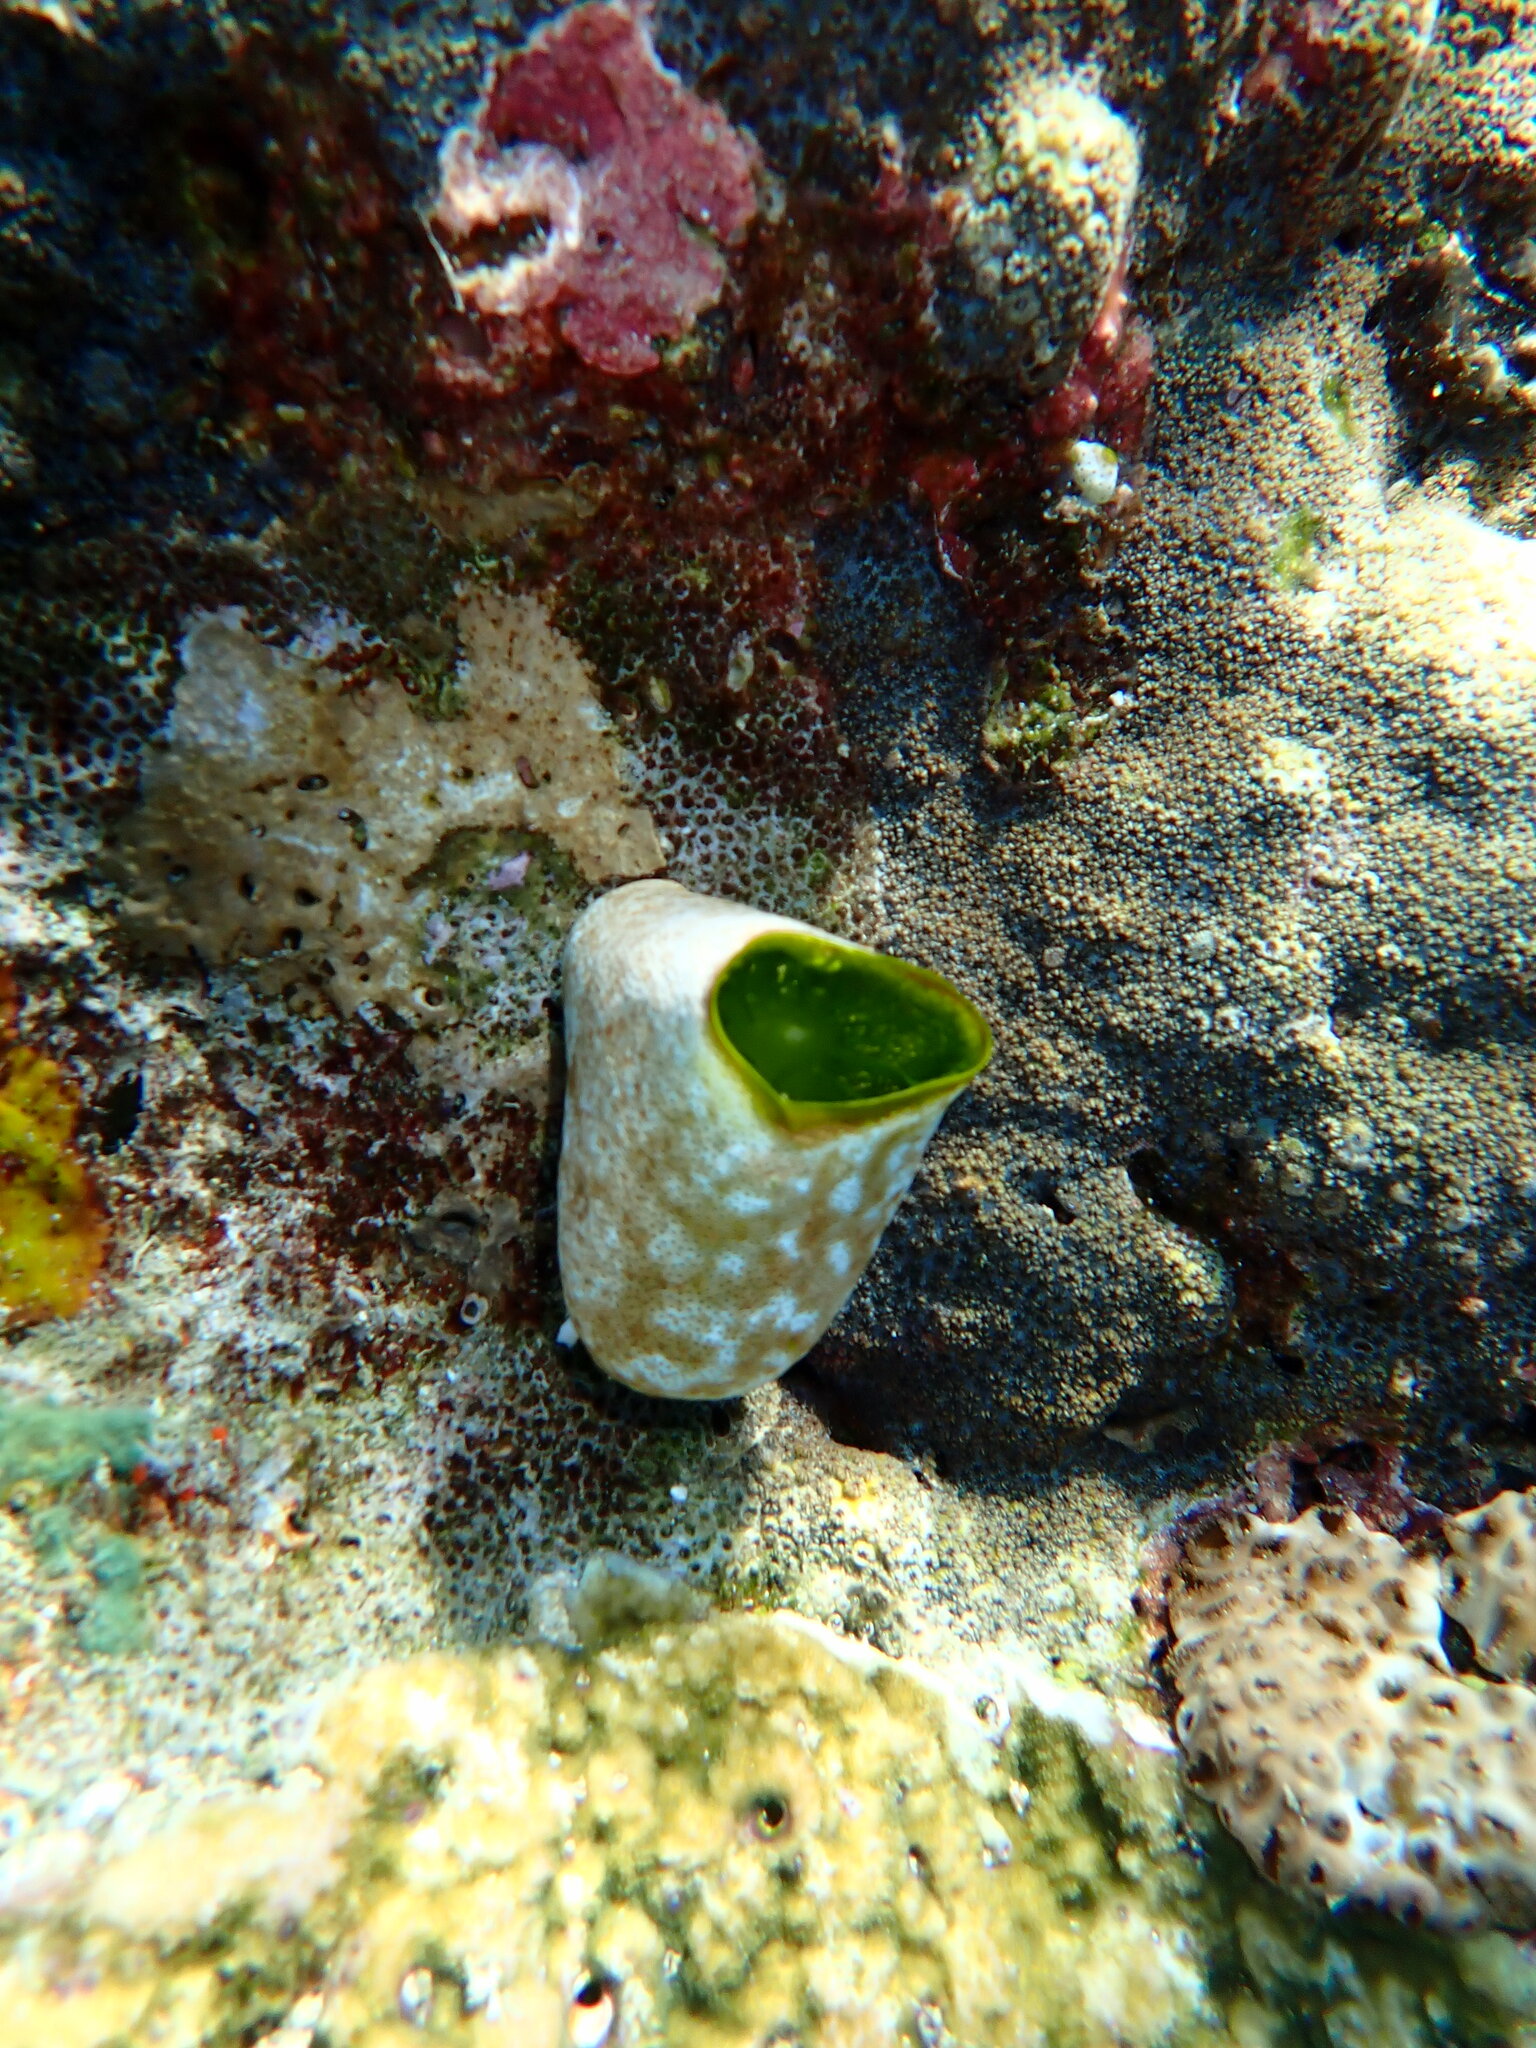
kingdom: Animalia
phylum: Chordata
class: Ascidiacea
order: Aplousobranchia
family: Didemnidae
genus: Didemnum
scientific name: Didemnum molle
